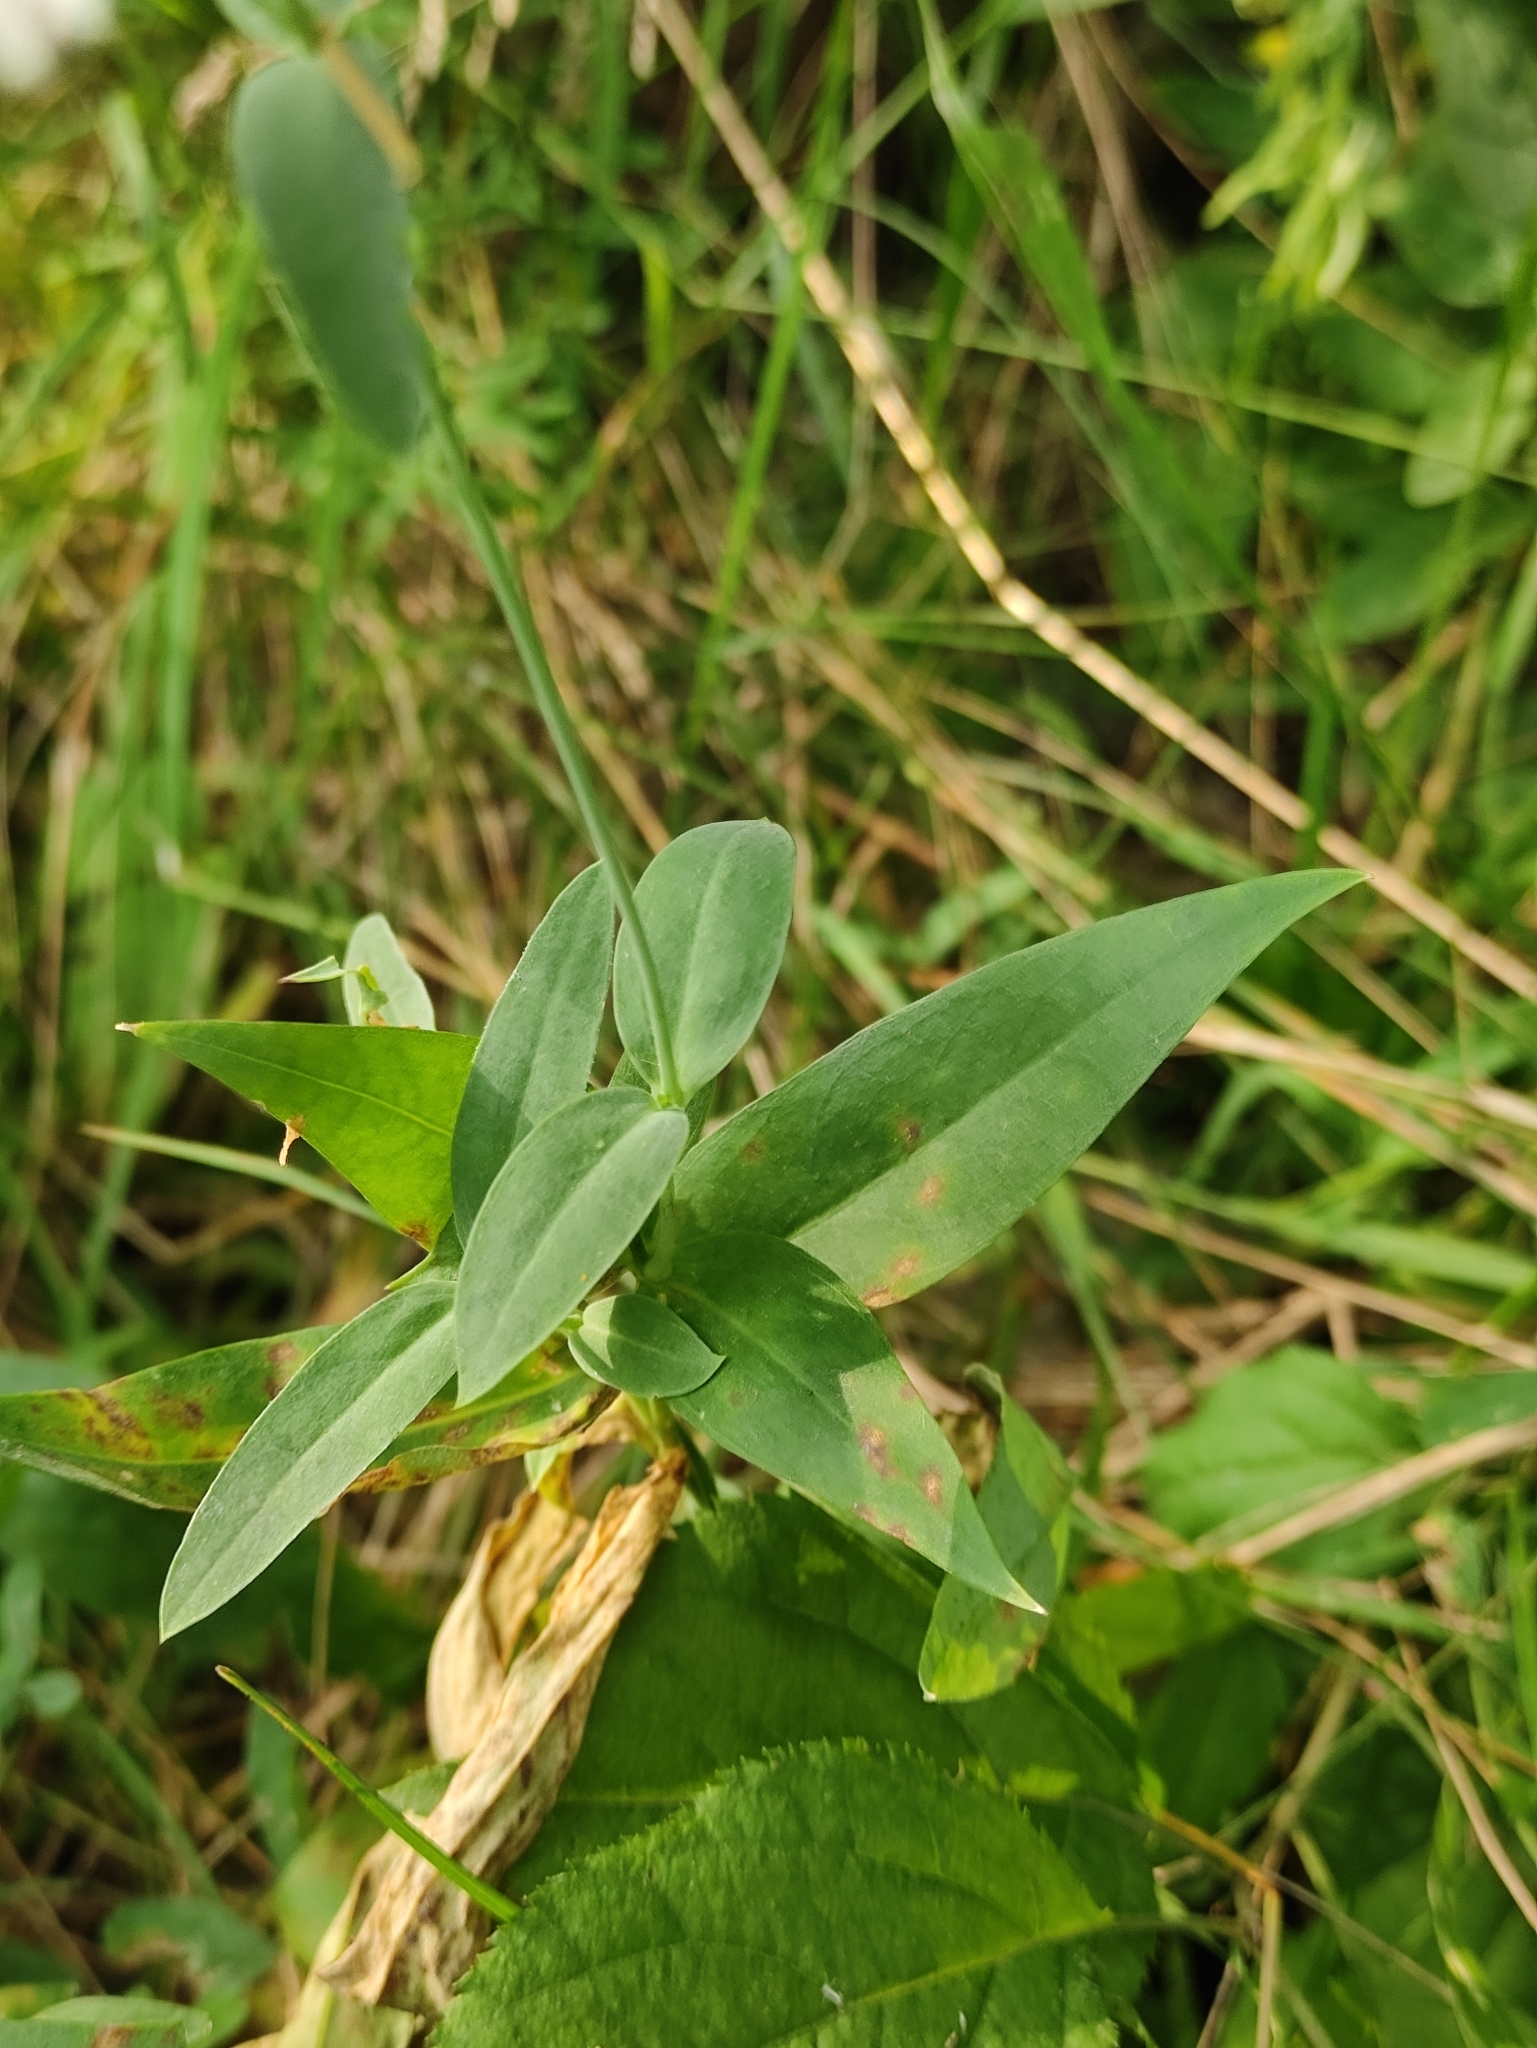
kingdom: Plantae
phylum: Tracheophyta
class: Magnoliopsida
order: Caryophyllales
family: Caryophyllaceae
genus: Silene
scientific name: Silene vulgaris
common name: Bladder campion
